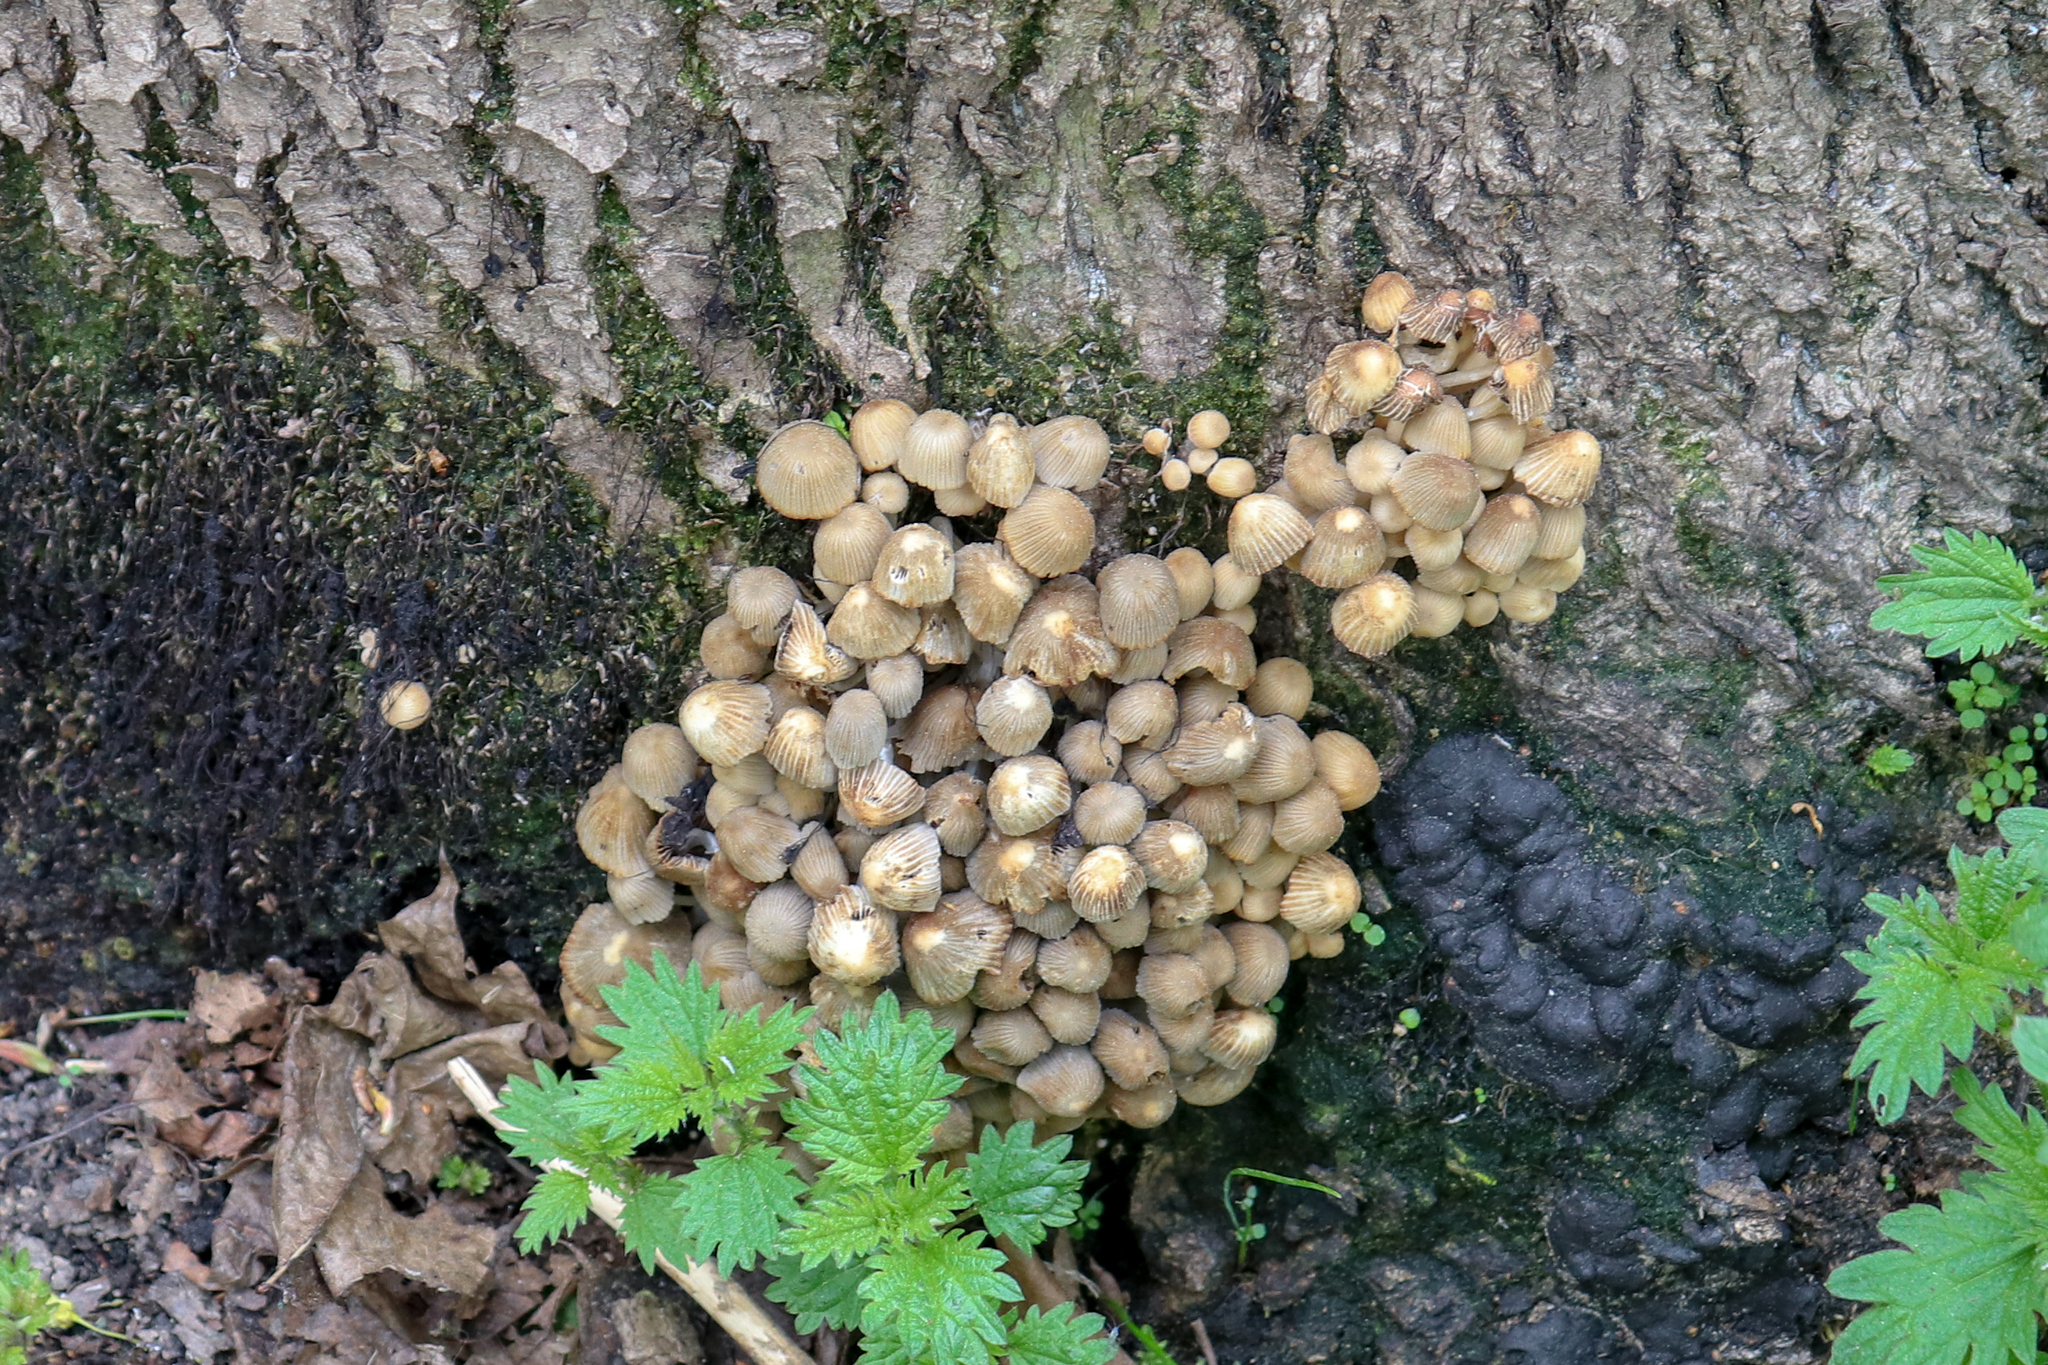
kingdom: Fungi
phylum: Basidiomycota
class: Agaricomycetes
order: Agaricales
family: Psathyrellaceae
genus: Coprinellus
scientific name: Coprinellus disseminatus
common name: Fairies' bonnets
